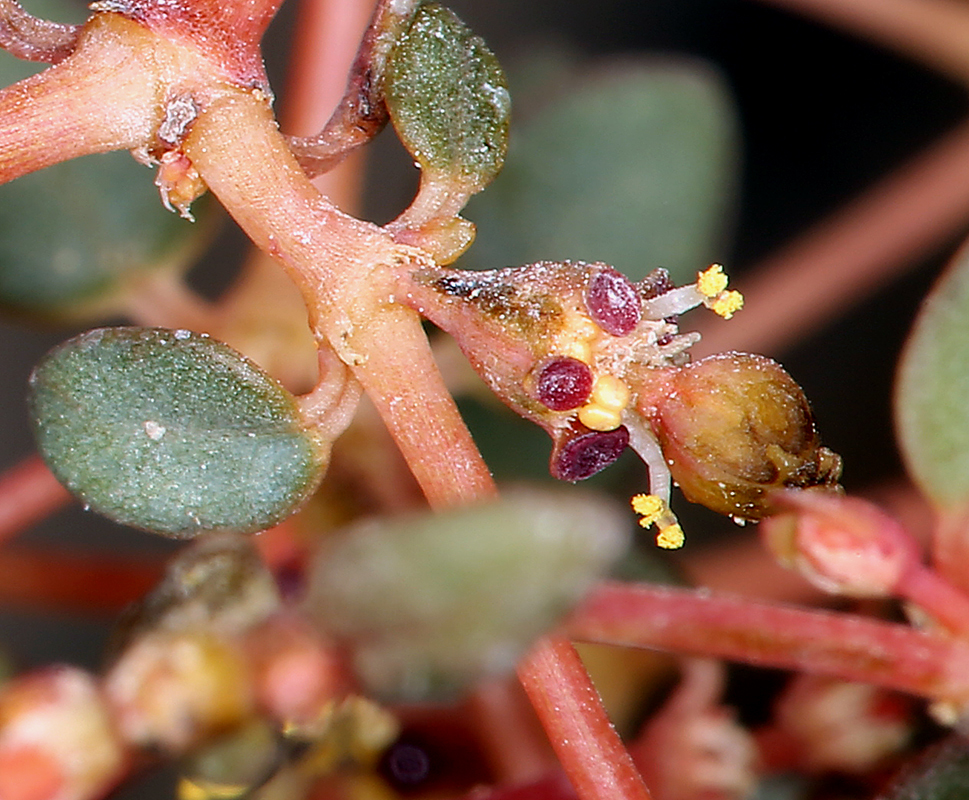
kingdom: Plantae
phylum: Tracheophyta
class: Magnoliopsida
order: Malpighiales
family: Euphorbiaceae
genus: Euphorbia
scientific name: Euphorbia parishii
